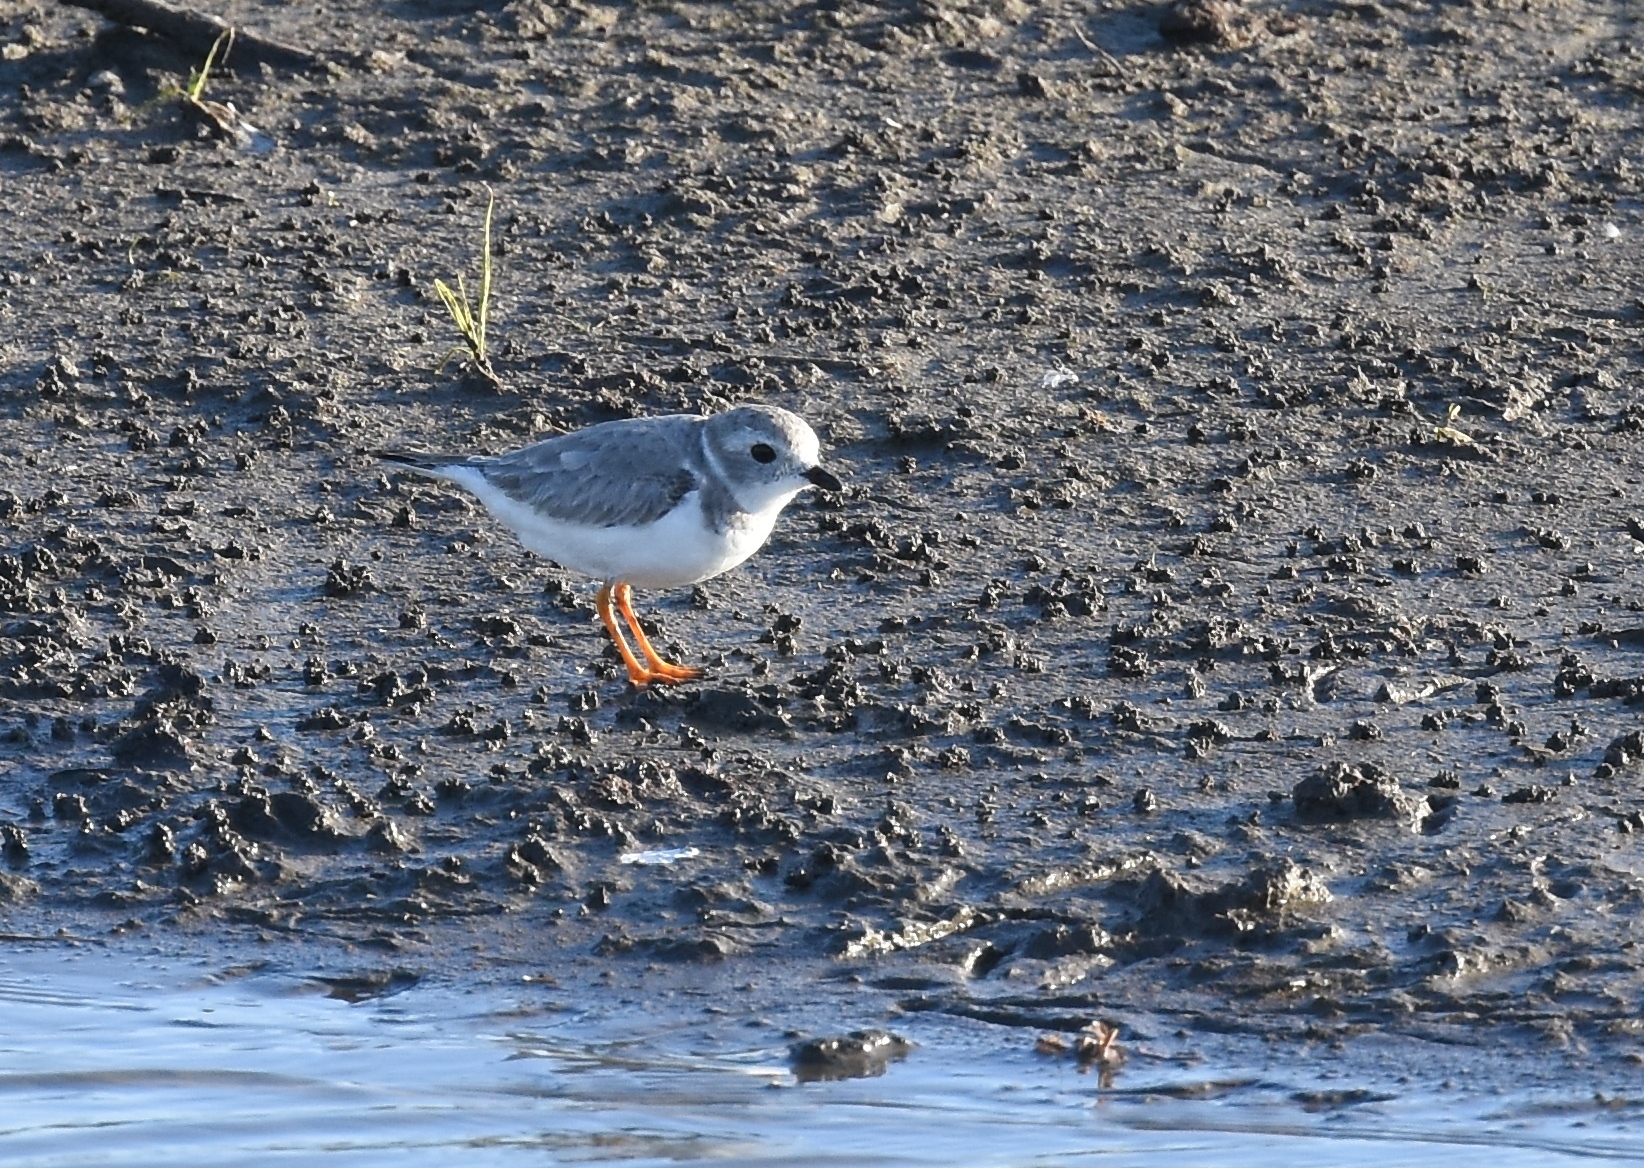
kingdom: Animalia
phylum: Chordata
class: Aves
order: Charadriiformes
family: Charadriidae
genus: Charadrius
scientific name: Charadrius melodus
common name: Piping plover
